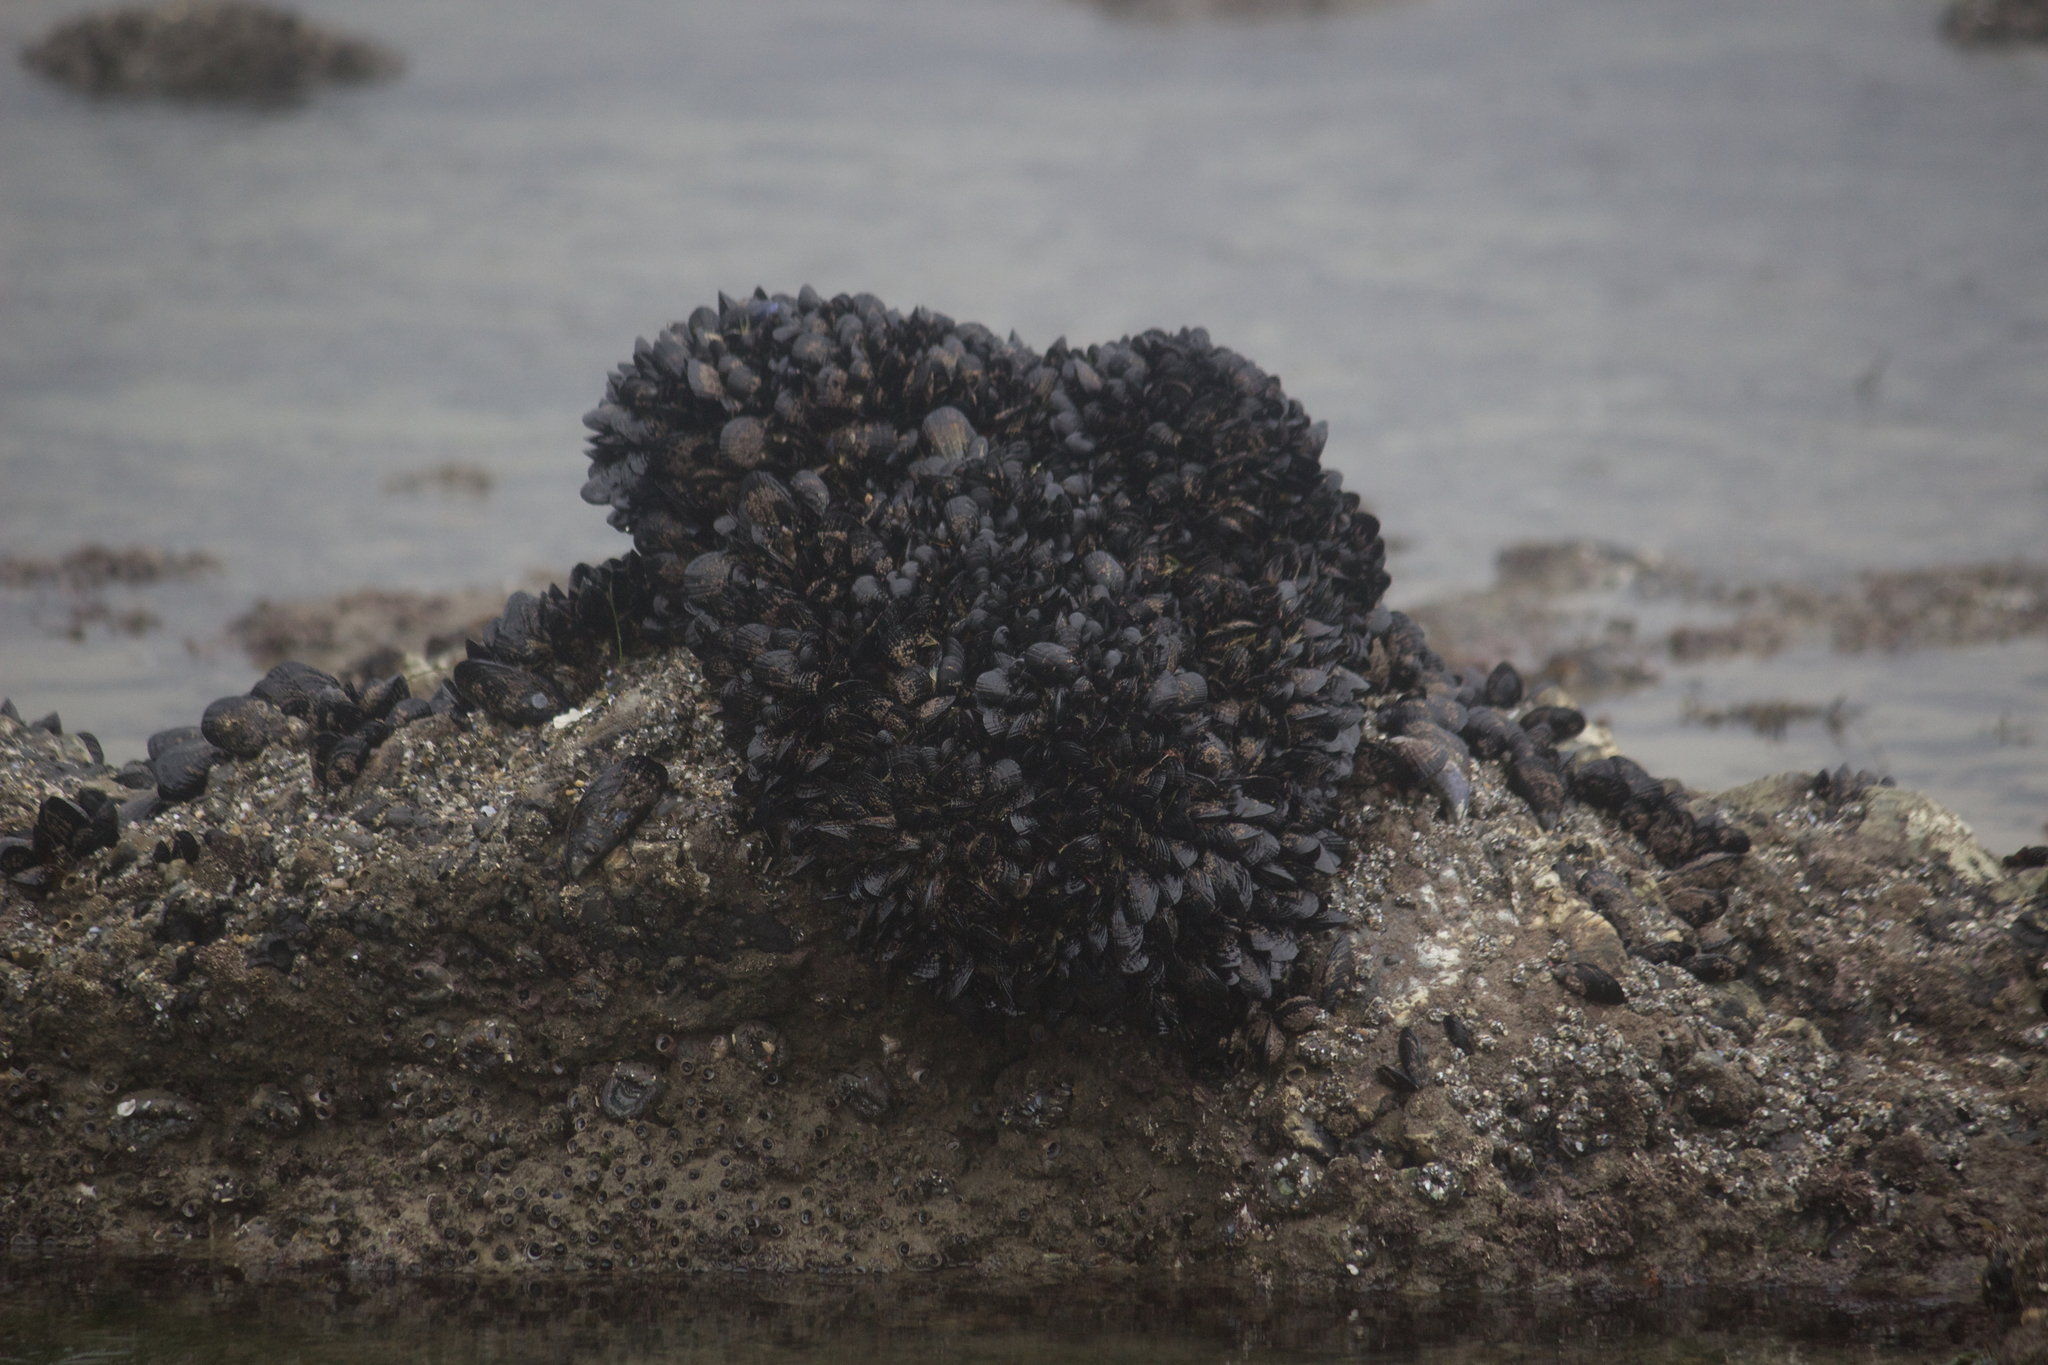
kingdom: Animalia
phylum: Mollusca
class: Bivalvia
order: Mytilida
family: Mytilidae
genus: Mytilus
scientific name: Mytilus californianus
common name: California mussel
